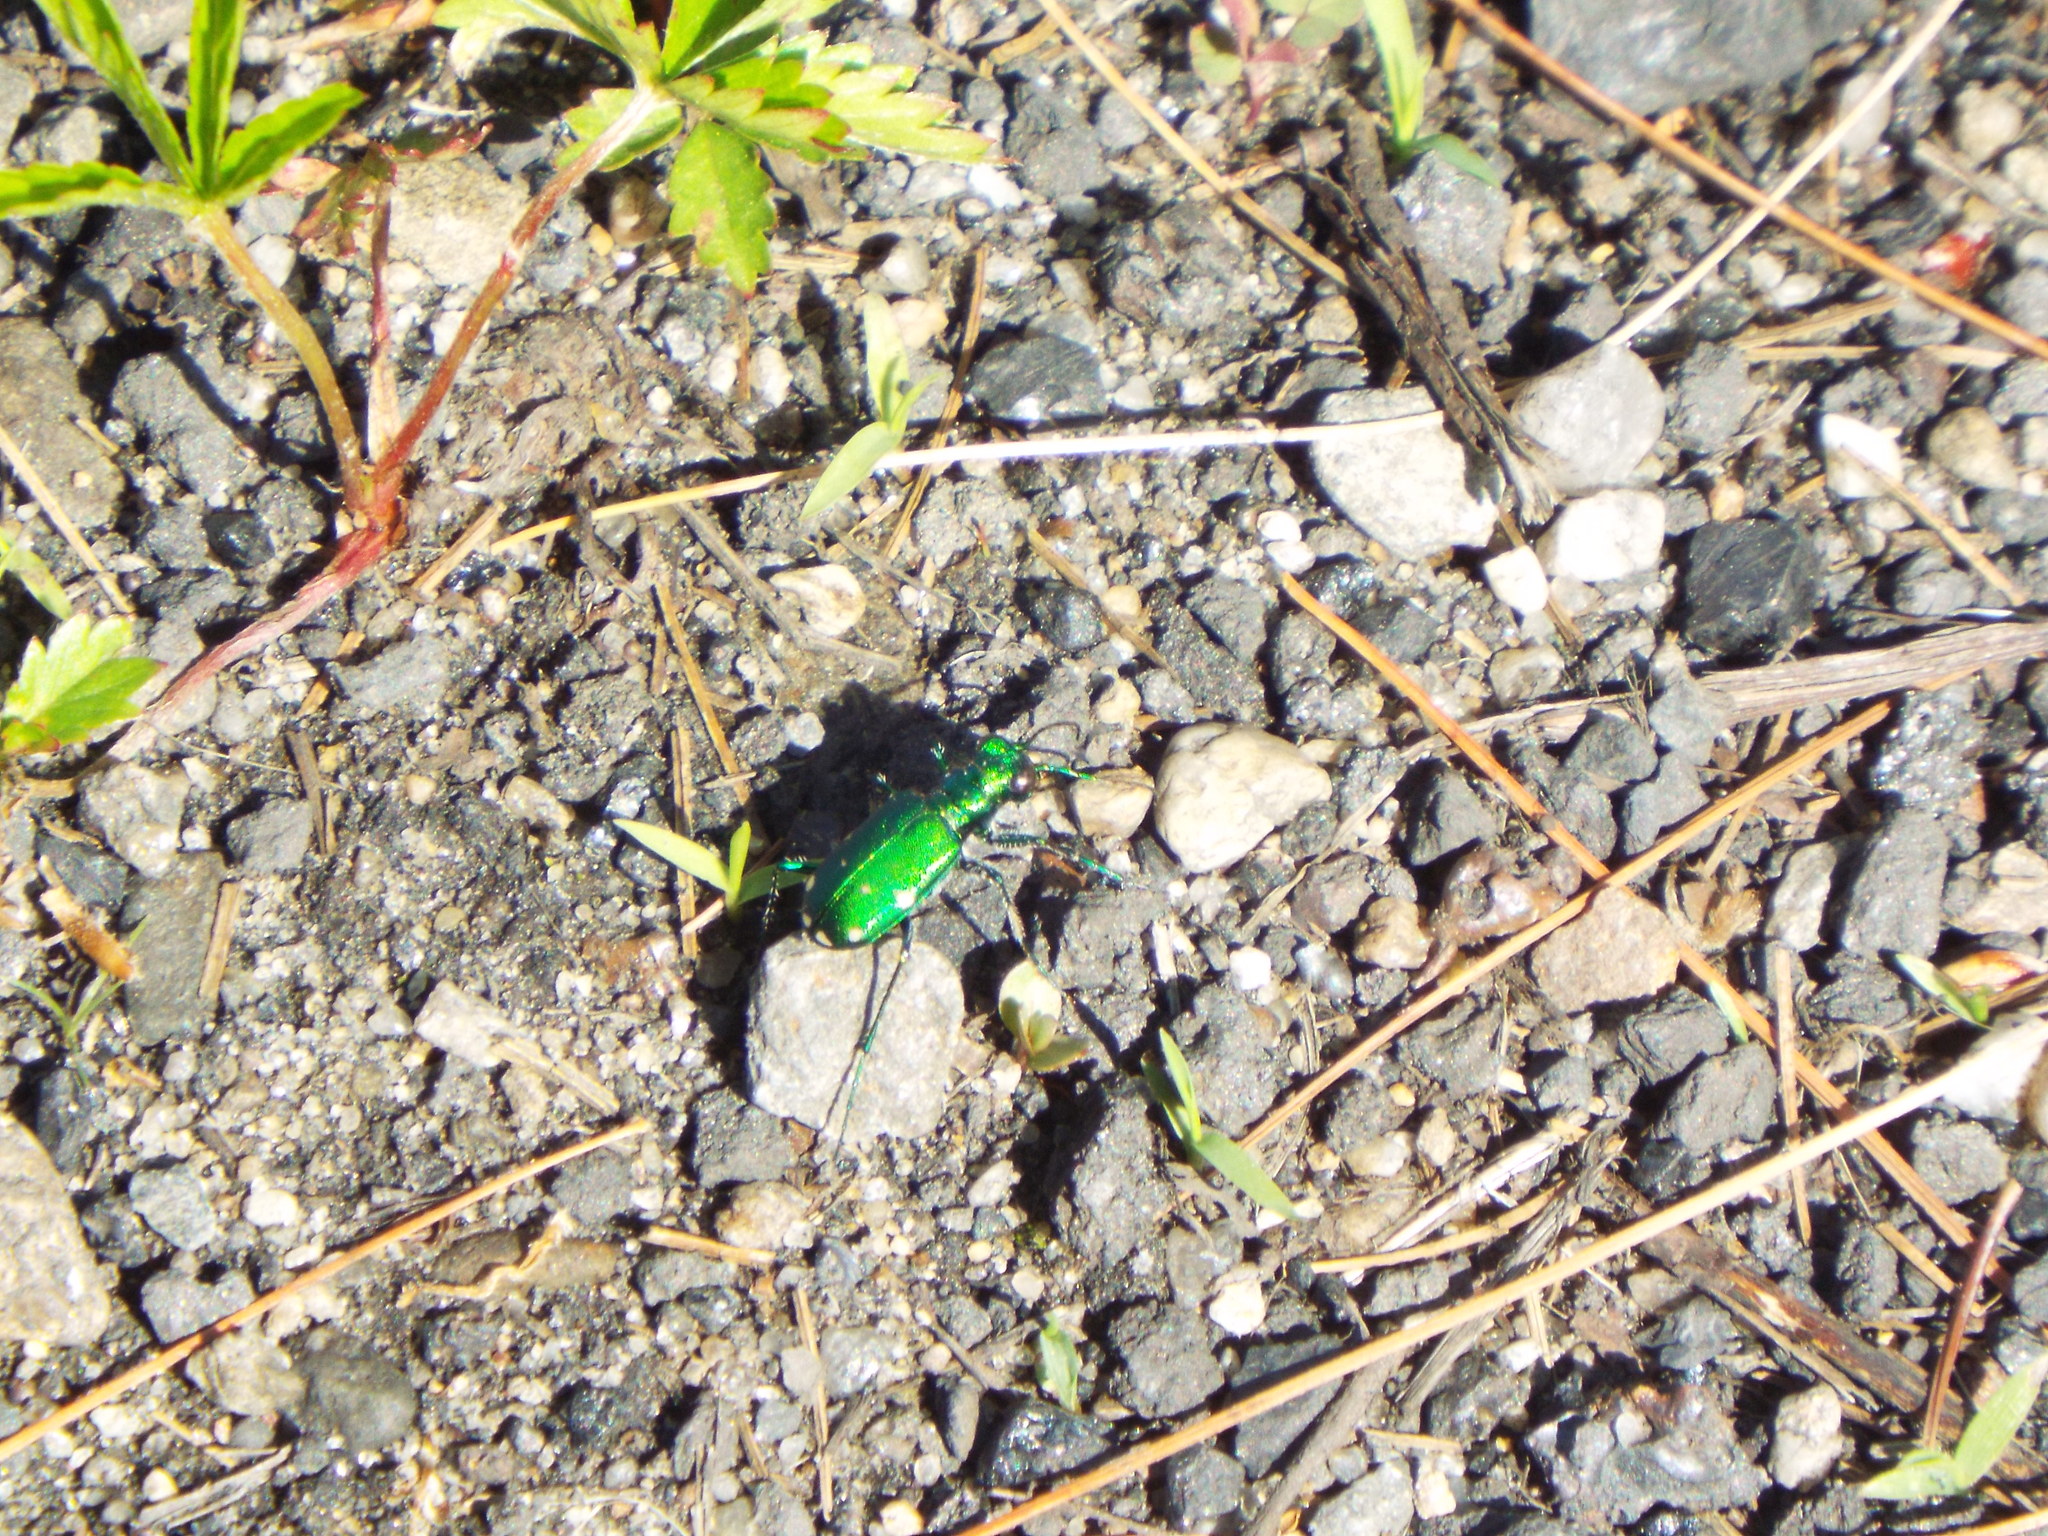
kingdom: Animalia
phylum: Arthropoda
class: Insecta
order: Coleoptera
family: Carabidae
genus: Cicindela
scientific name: Cicindela sexguttata
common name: Six-spotted tiger beetle
